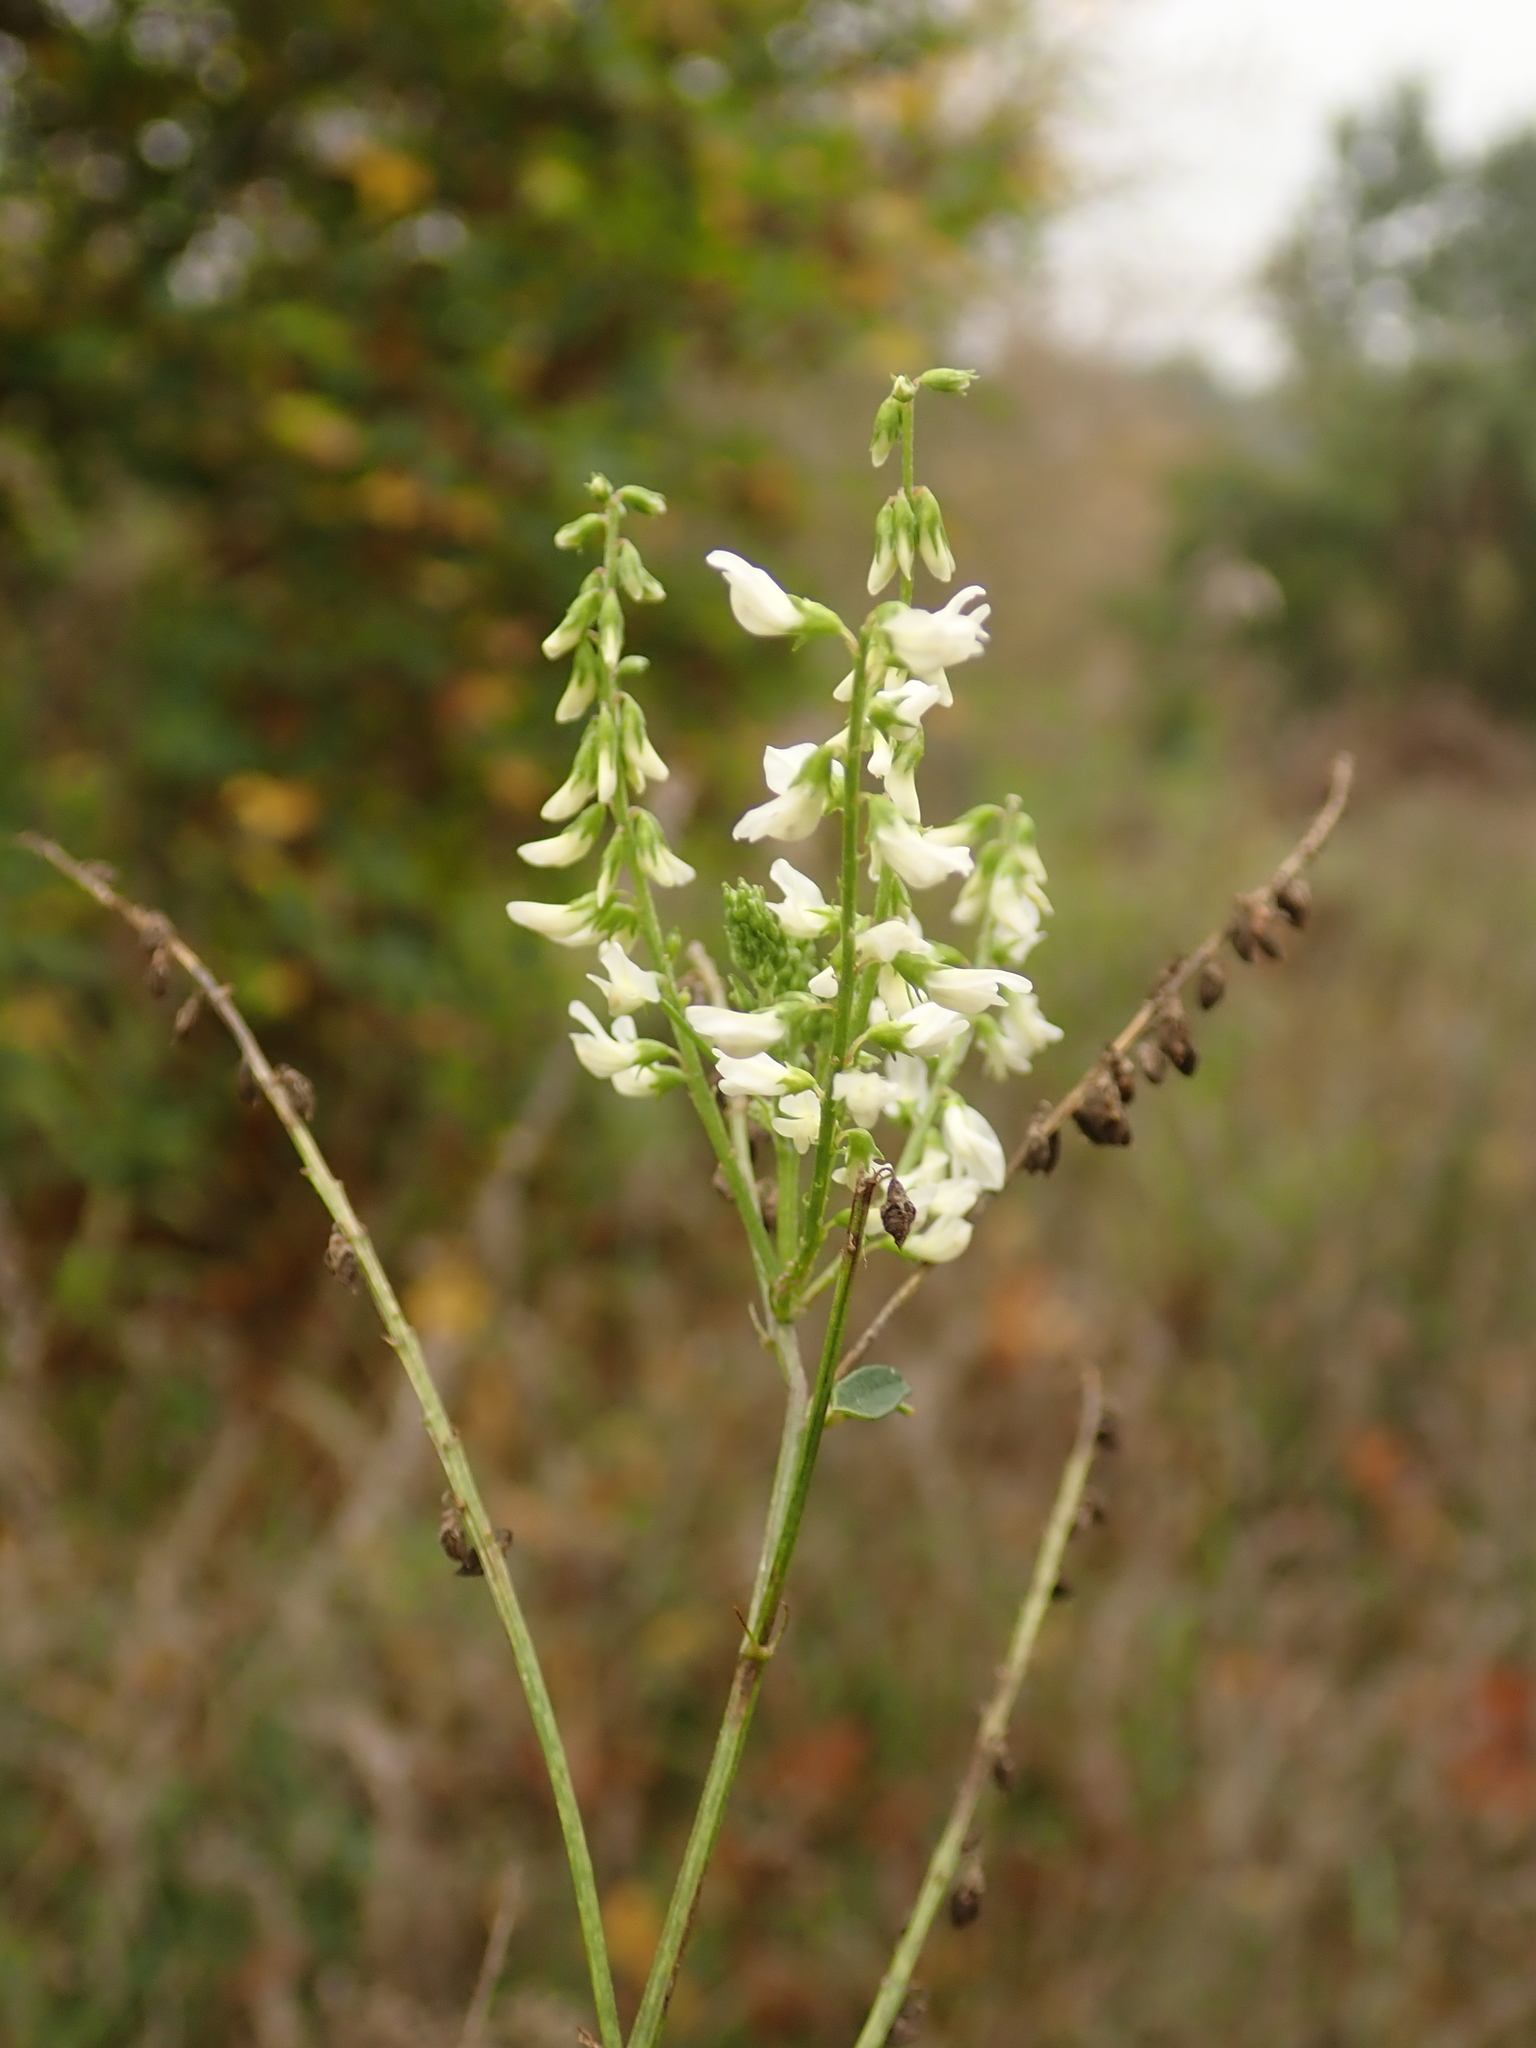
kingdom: Plantae
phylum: Tracheophyta
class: Magnoliopsida
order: Fabales
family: Fabaceae
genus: Melilotus
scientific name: Melilotus albus
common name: White melilot
